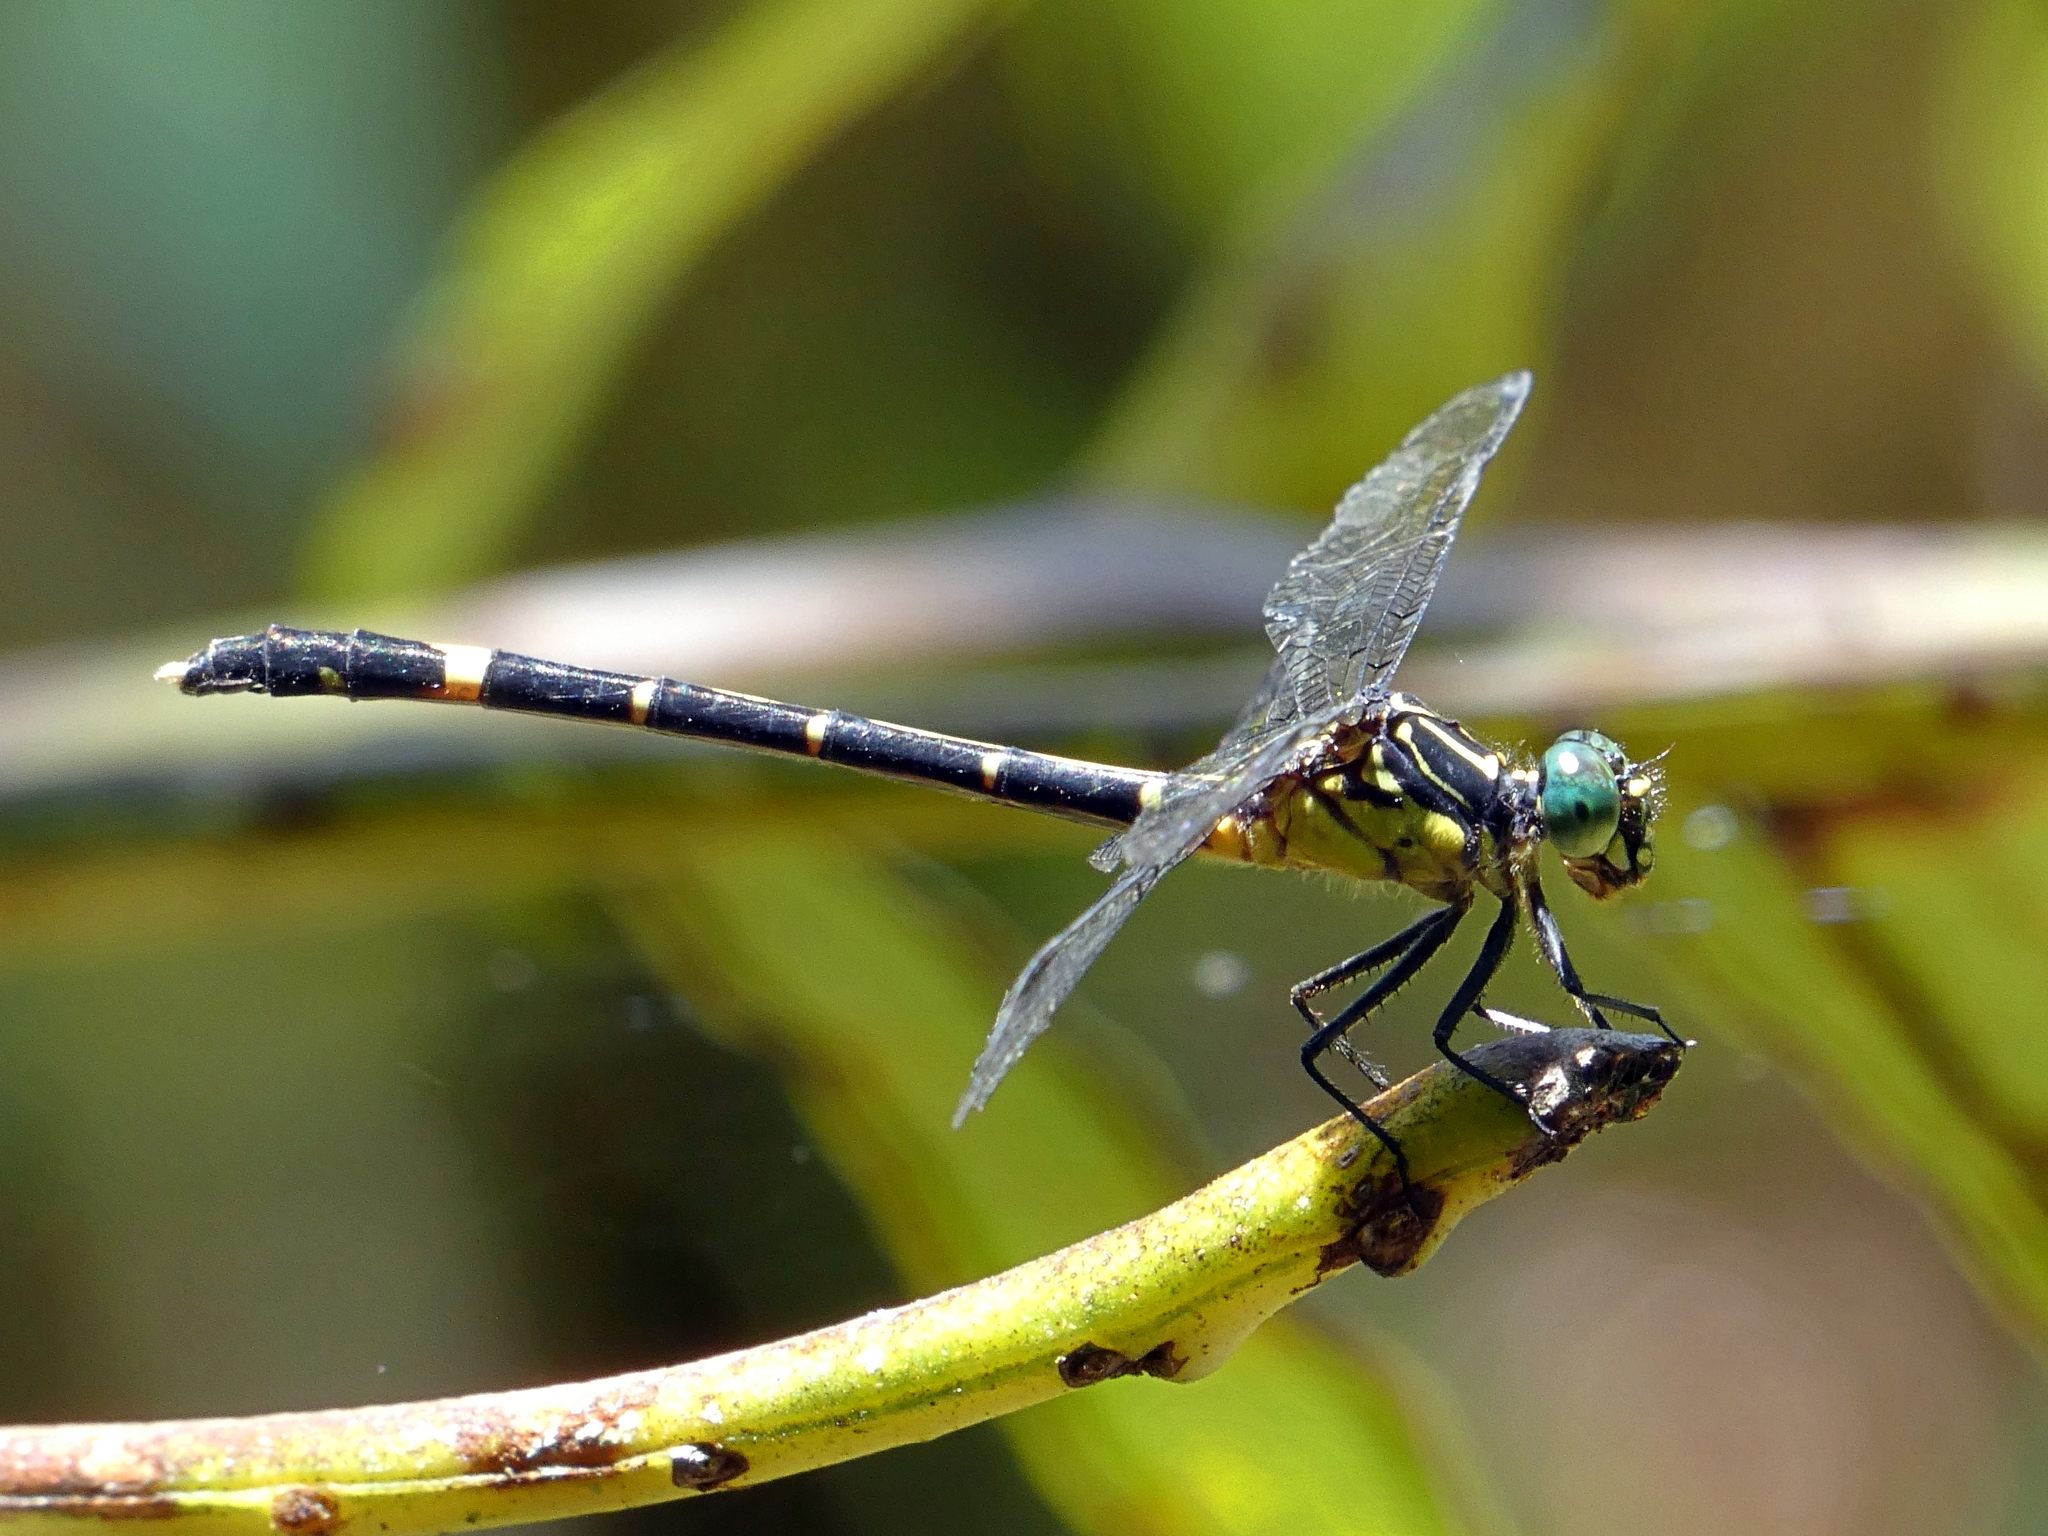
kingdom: Animalia
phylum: Arthropoda
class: Insecta
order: Odonata
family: Gomphidae
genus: Austrogomphus
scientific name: Austrogomphus prasinus
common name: Lemon-tipped hunter
